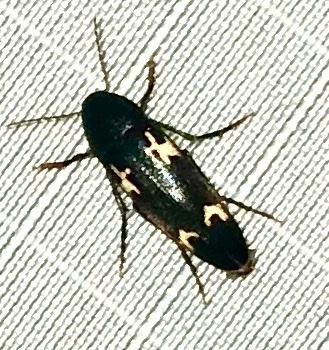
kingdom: Animalia
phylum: Arthropoda
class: Insecta
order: Coleoptera
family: Melandryidae
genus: Dircaea
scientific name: Dircaea liturata
